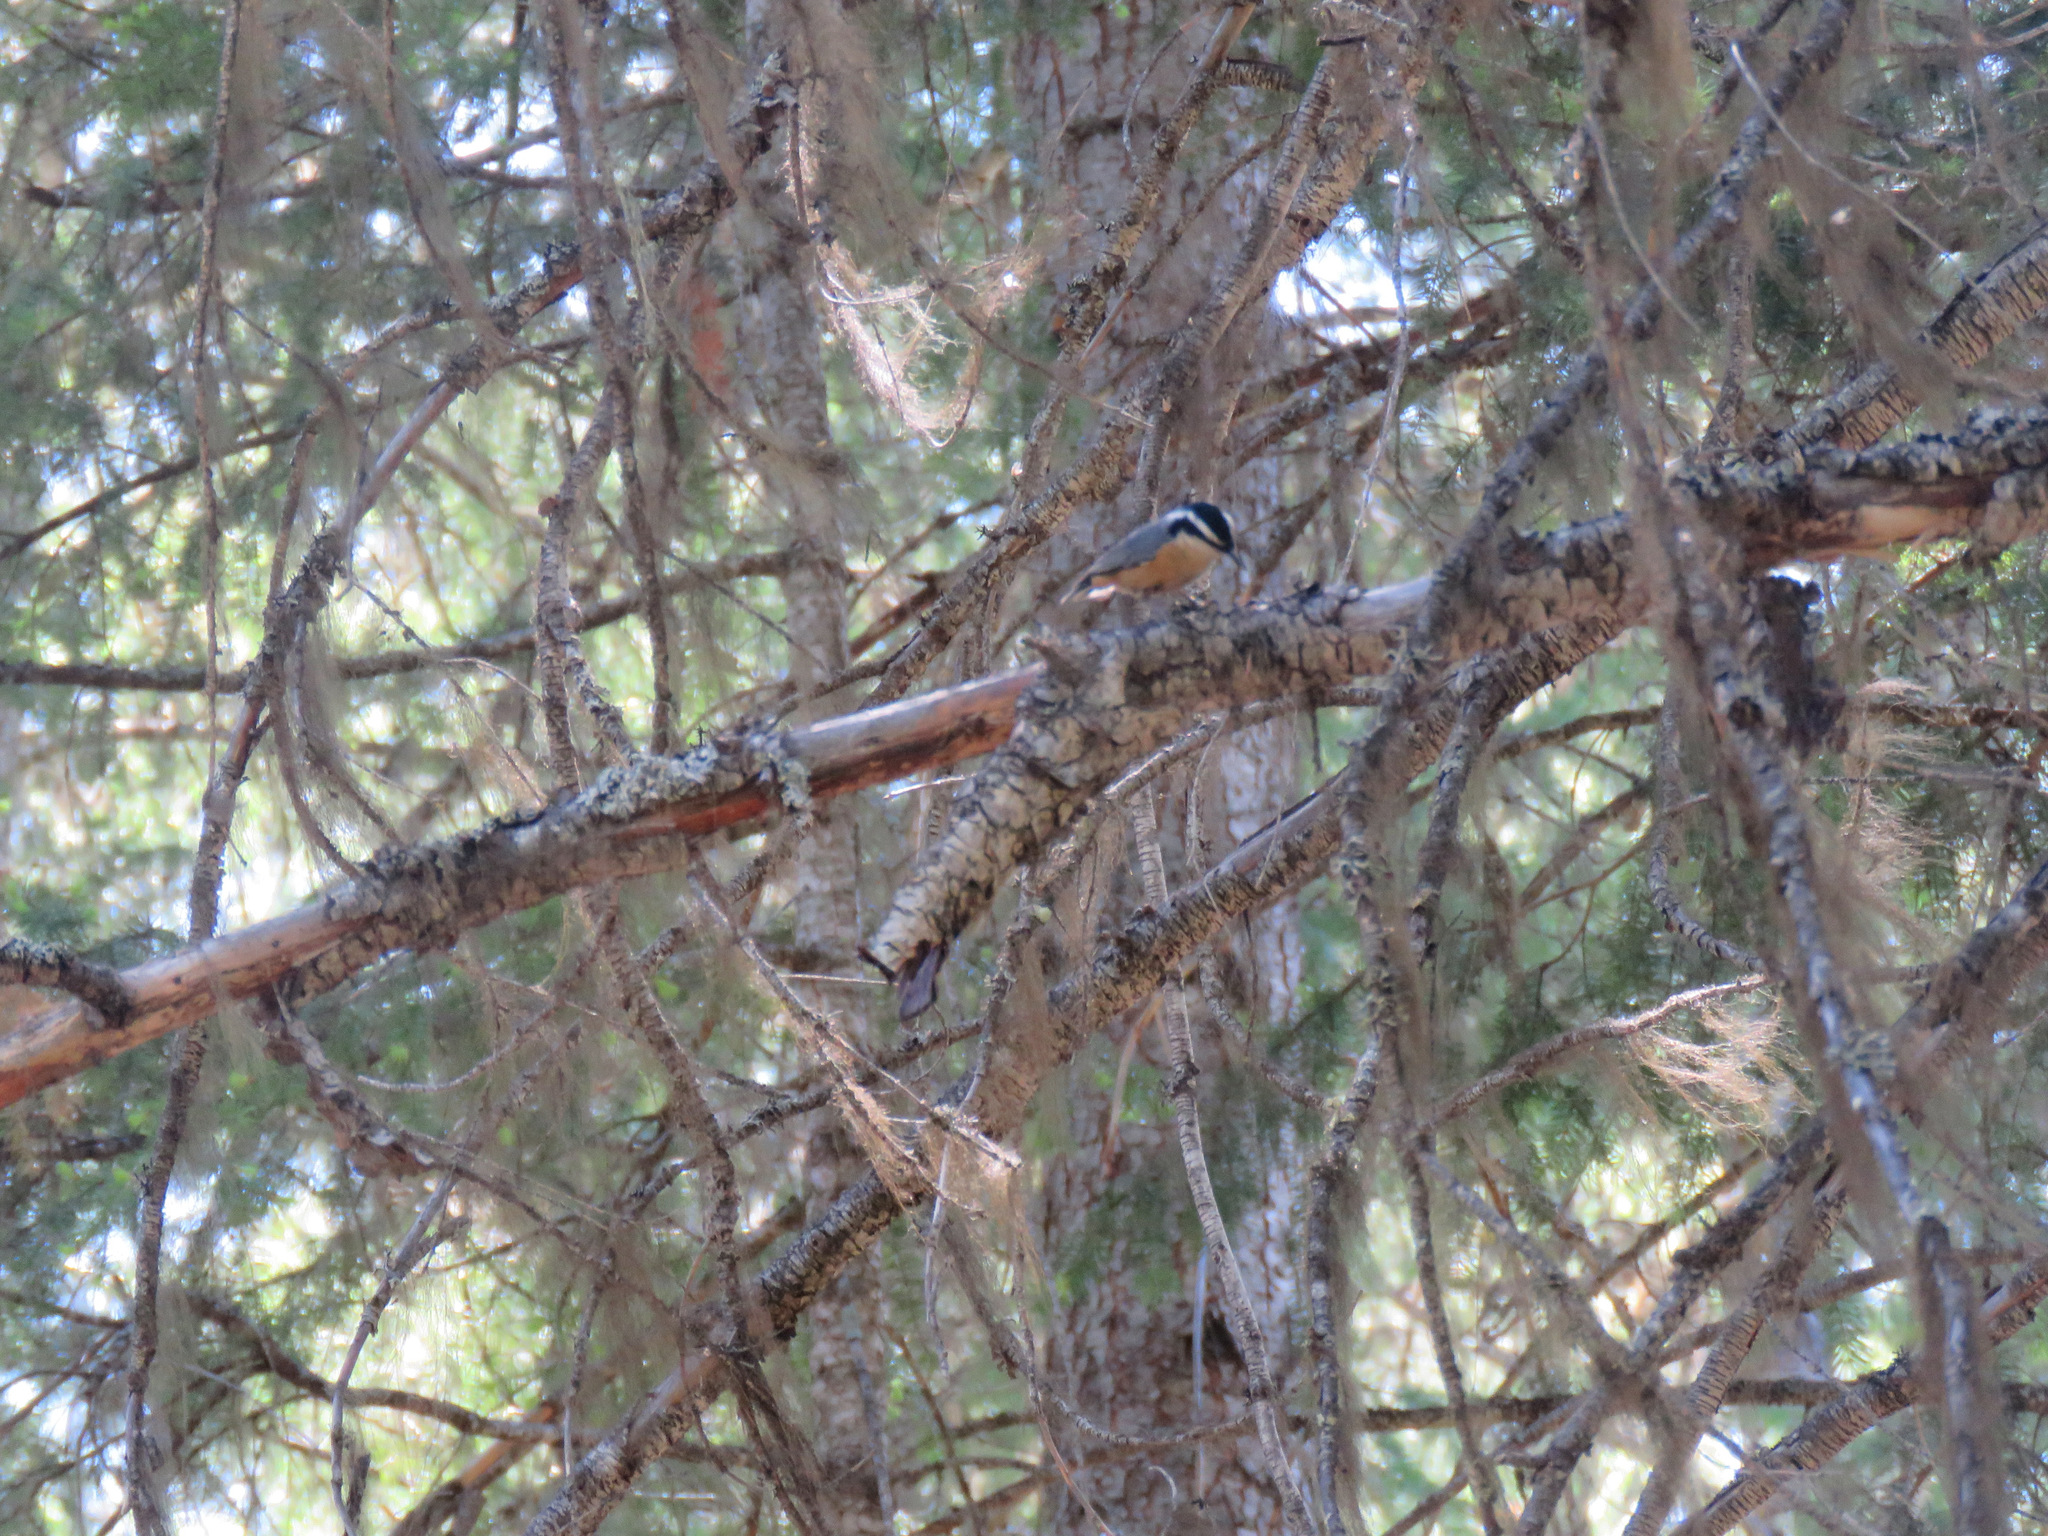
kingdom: Animalia
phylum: Chordata
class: Aves
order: Passeriformes
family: Sittidae
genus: Sitta
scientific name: Sitta canadensis
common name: Red-breasted nuthatch
